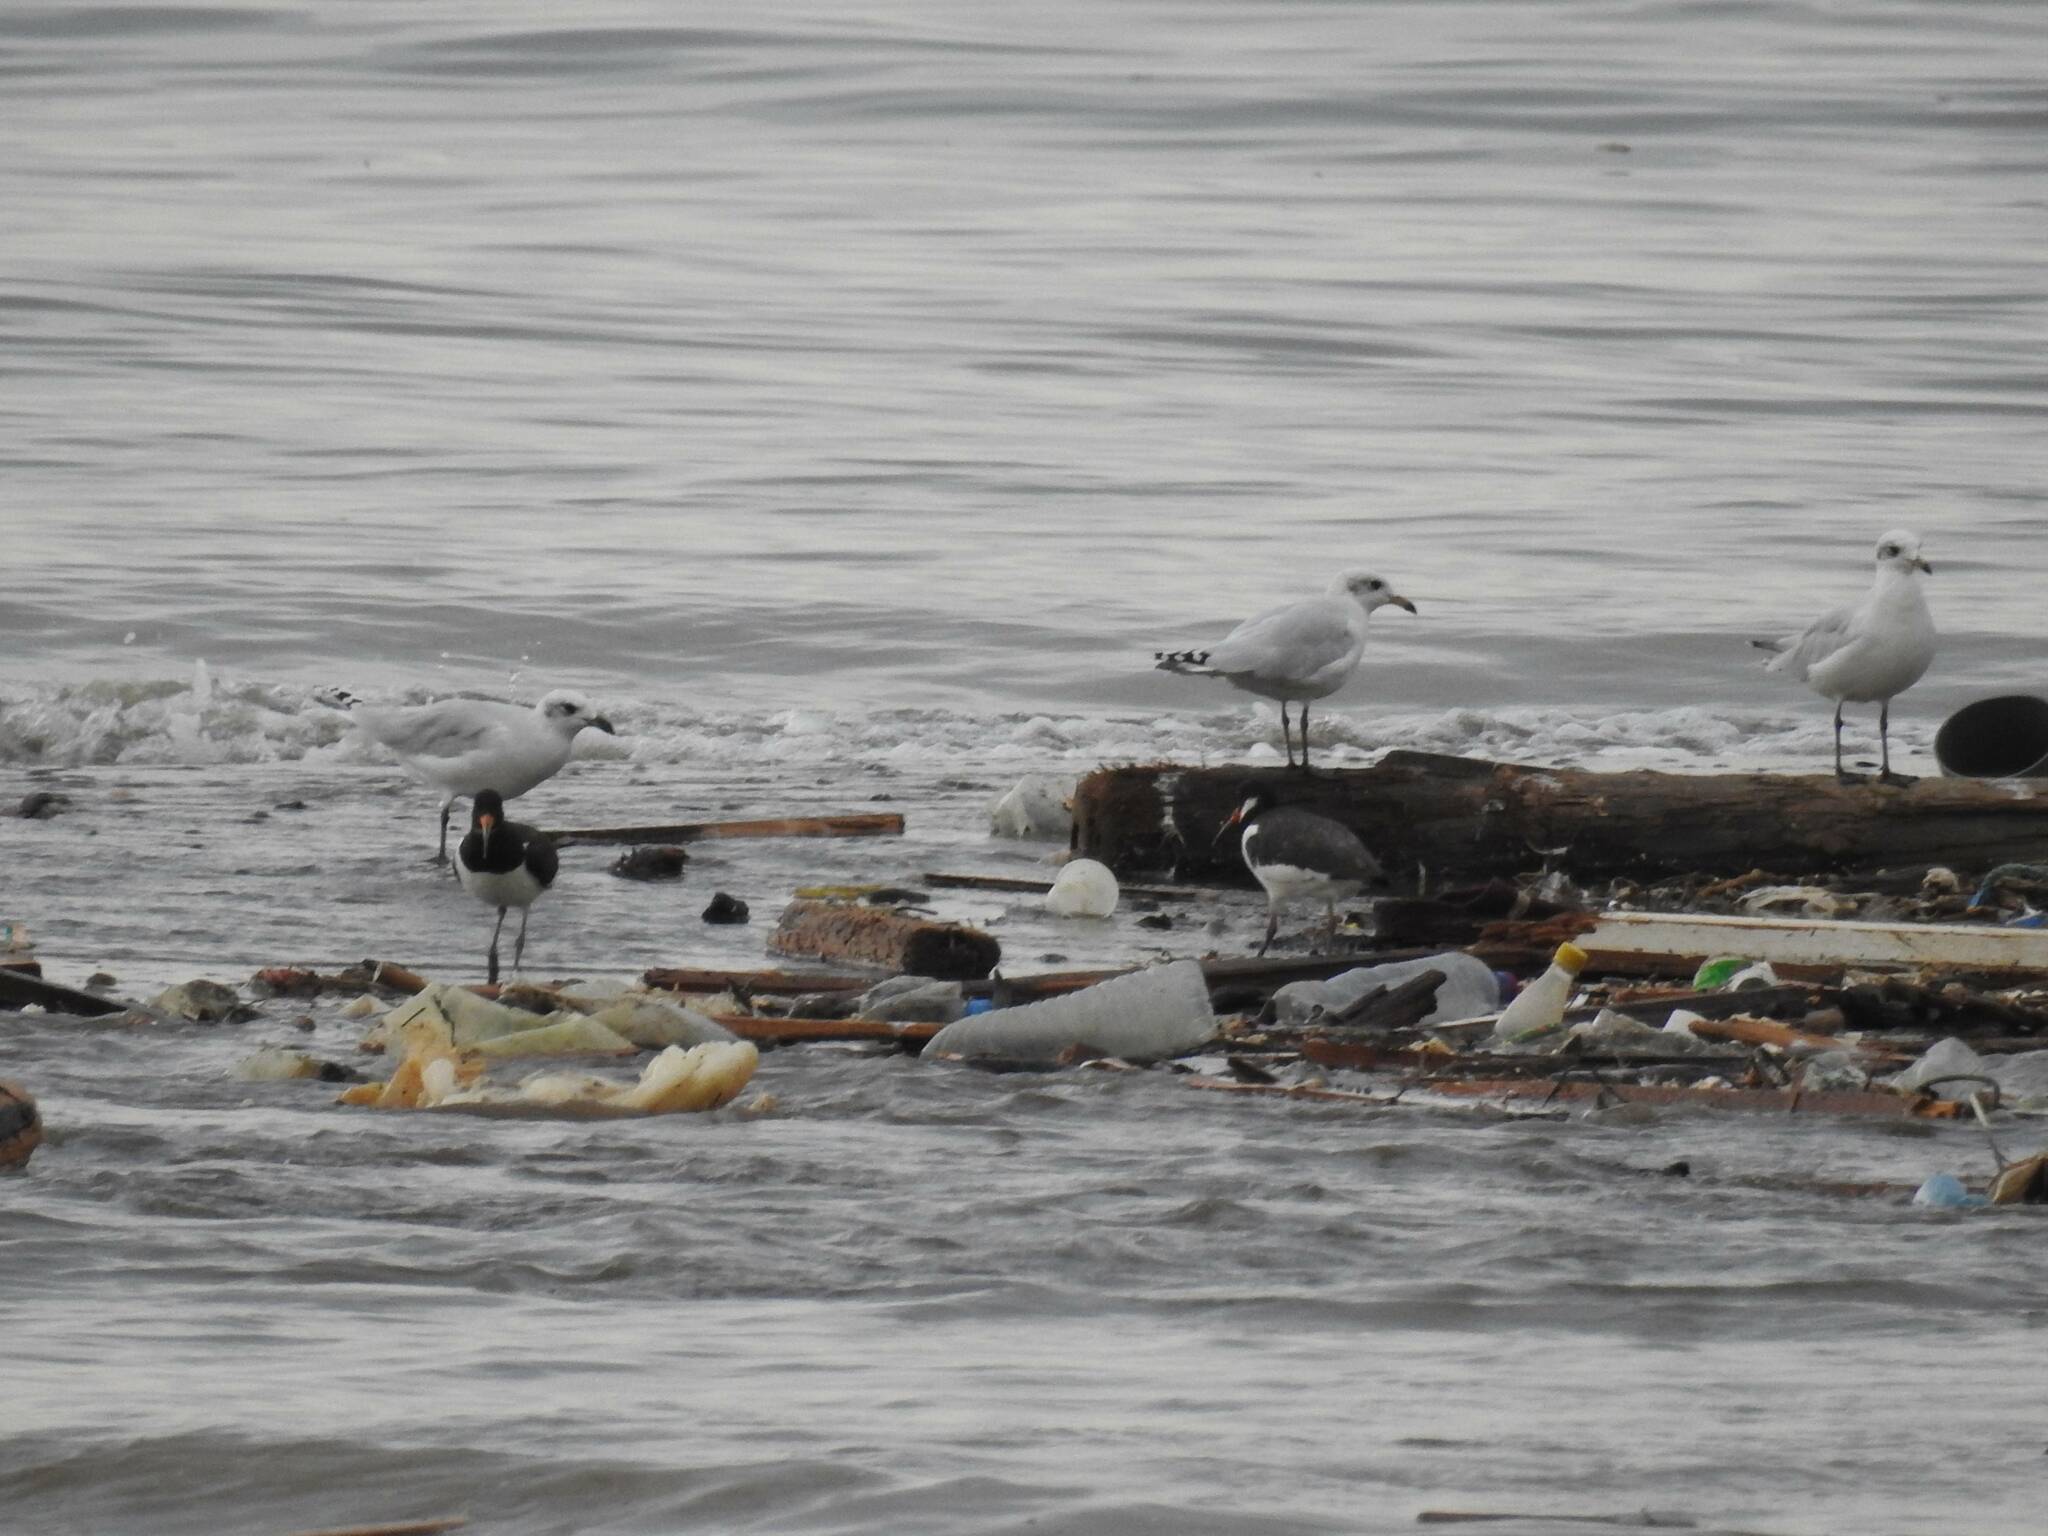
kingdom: Animalia
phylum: Chordata
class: Aves
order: Charadriiformes
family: Laridae
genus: Ichthyaetus
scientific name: Ichthyaetus melanocephalus
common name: Mediterranean gull
